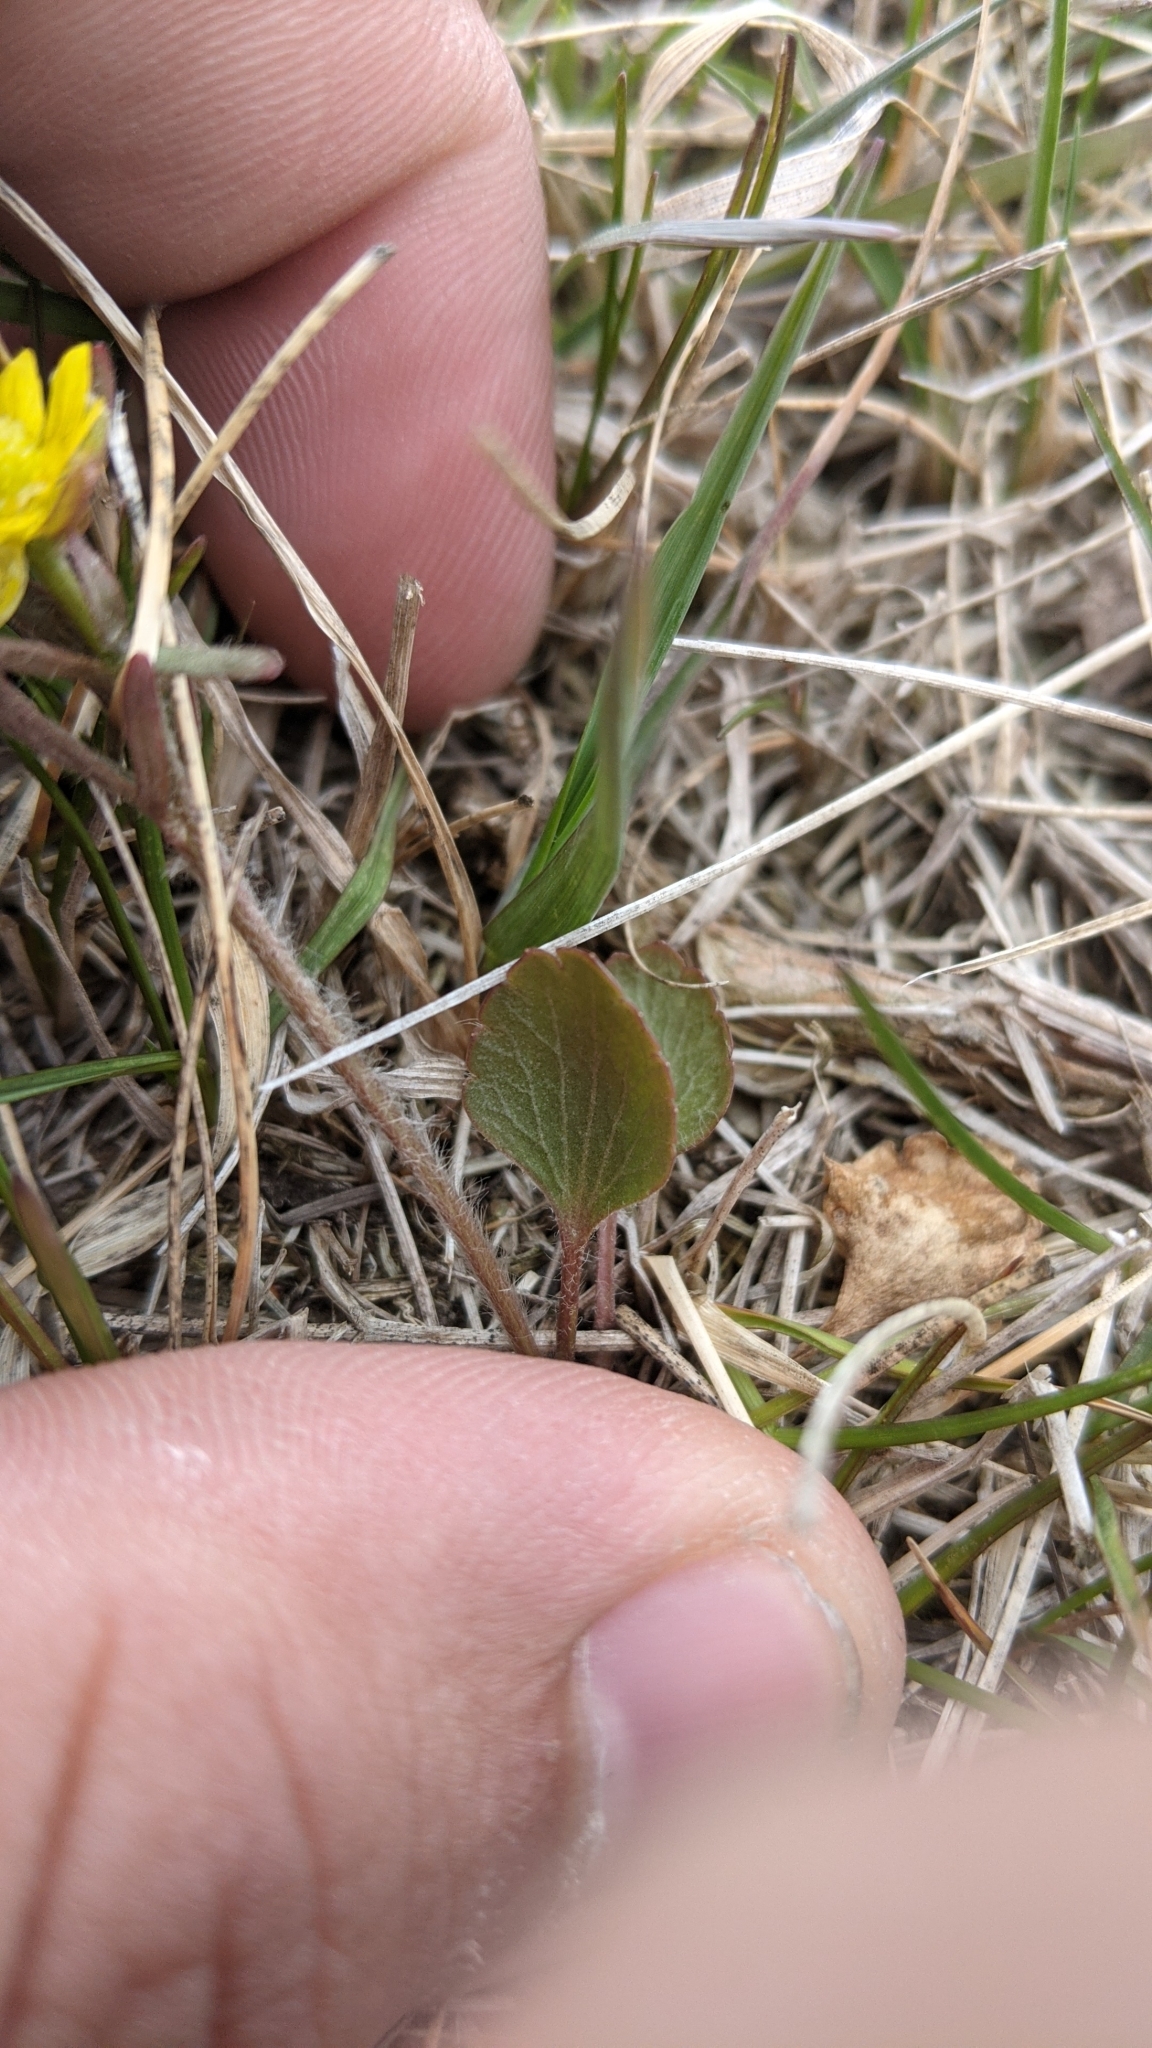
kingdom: Plantae
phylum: Tracheophyta
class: Magnoliopsida
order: Ranunculales
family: Ranunculaceae
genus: Ranunculus
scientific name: Ranunculus rhomboideus
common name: Prairie buttercup
